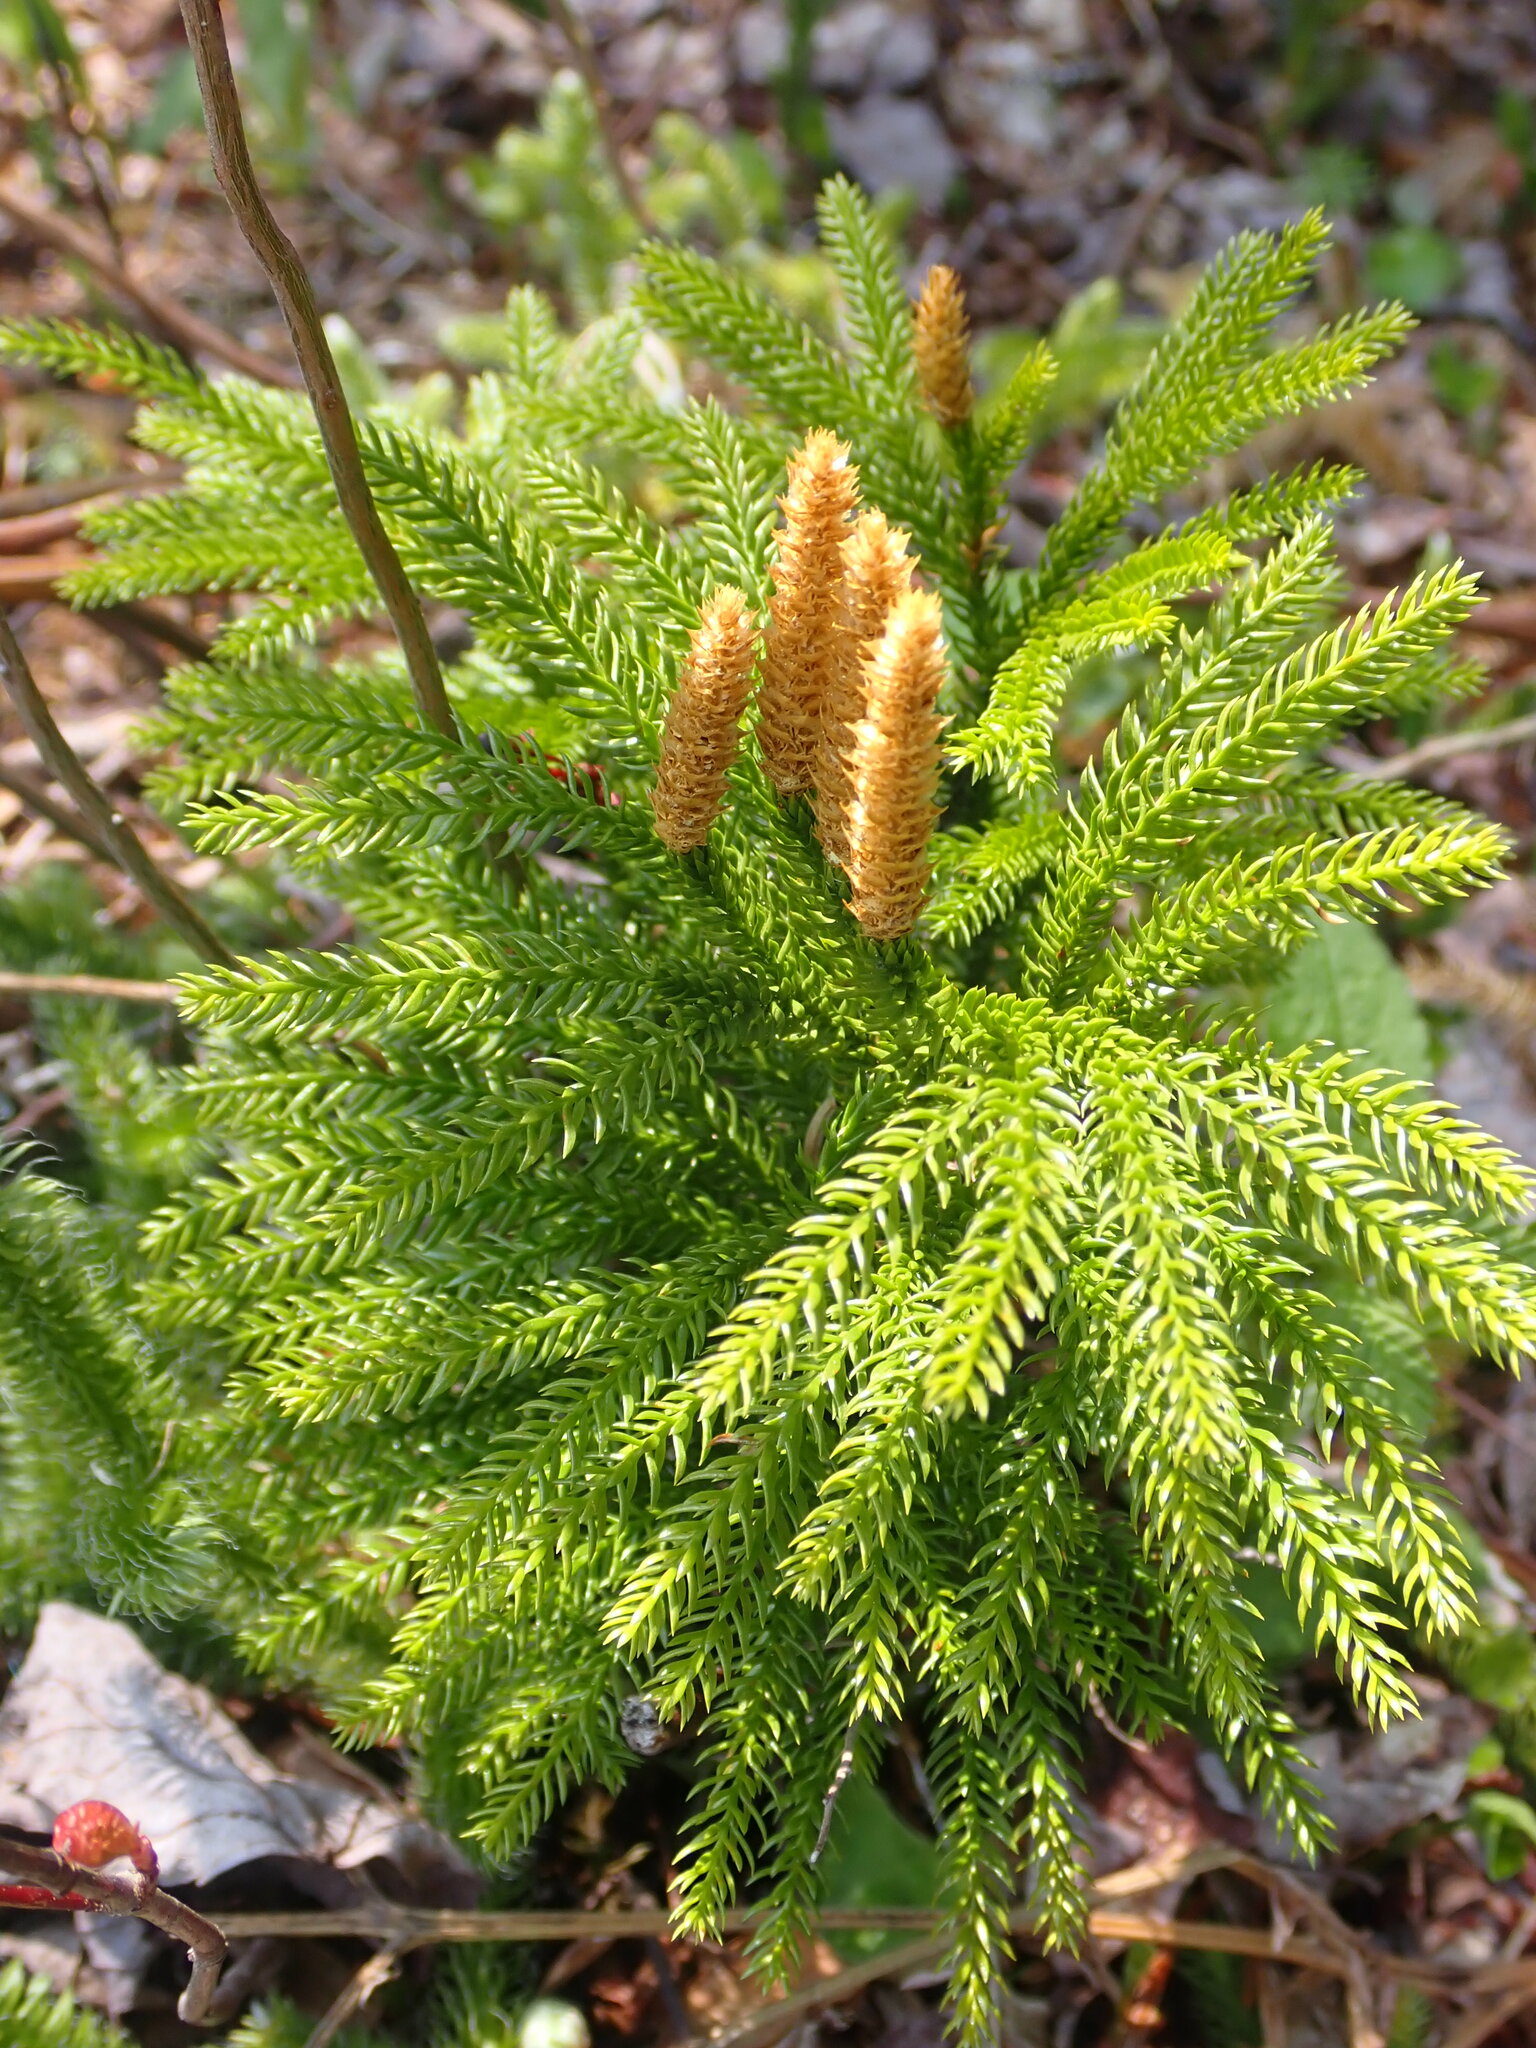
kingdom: Plantae
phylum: Tracheophyta
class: Lycopodiopsida
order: Lycopodiales
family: Lycopodiaceae
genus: Dendrolycopodium
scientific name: Dendrolycopodium dendroideum
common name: Northern tree-clubmoss
